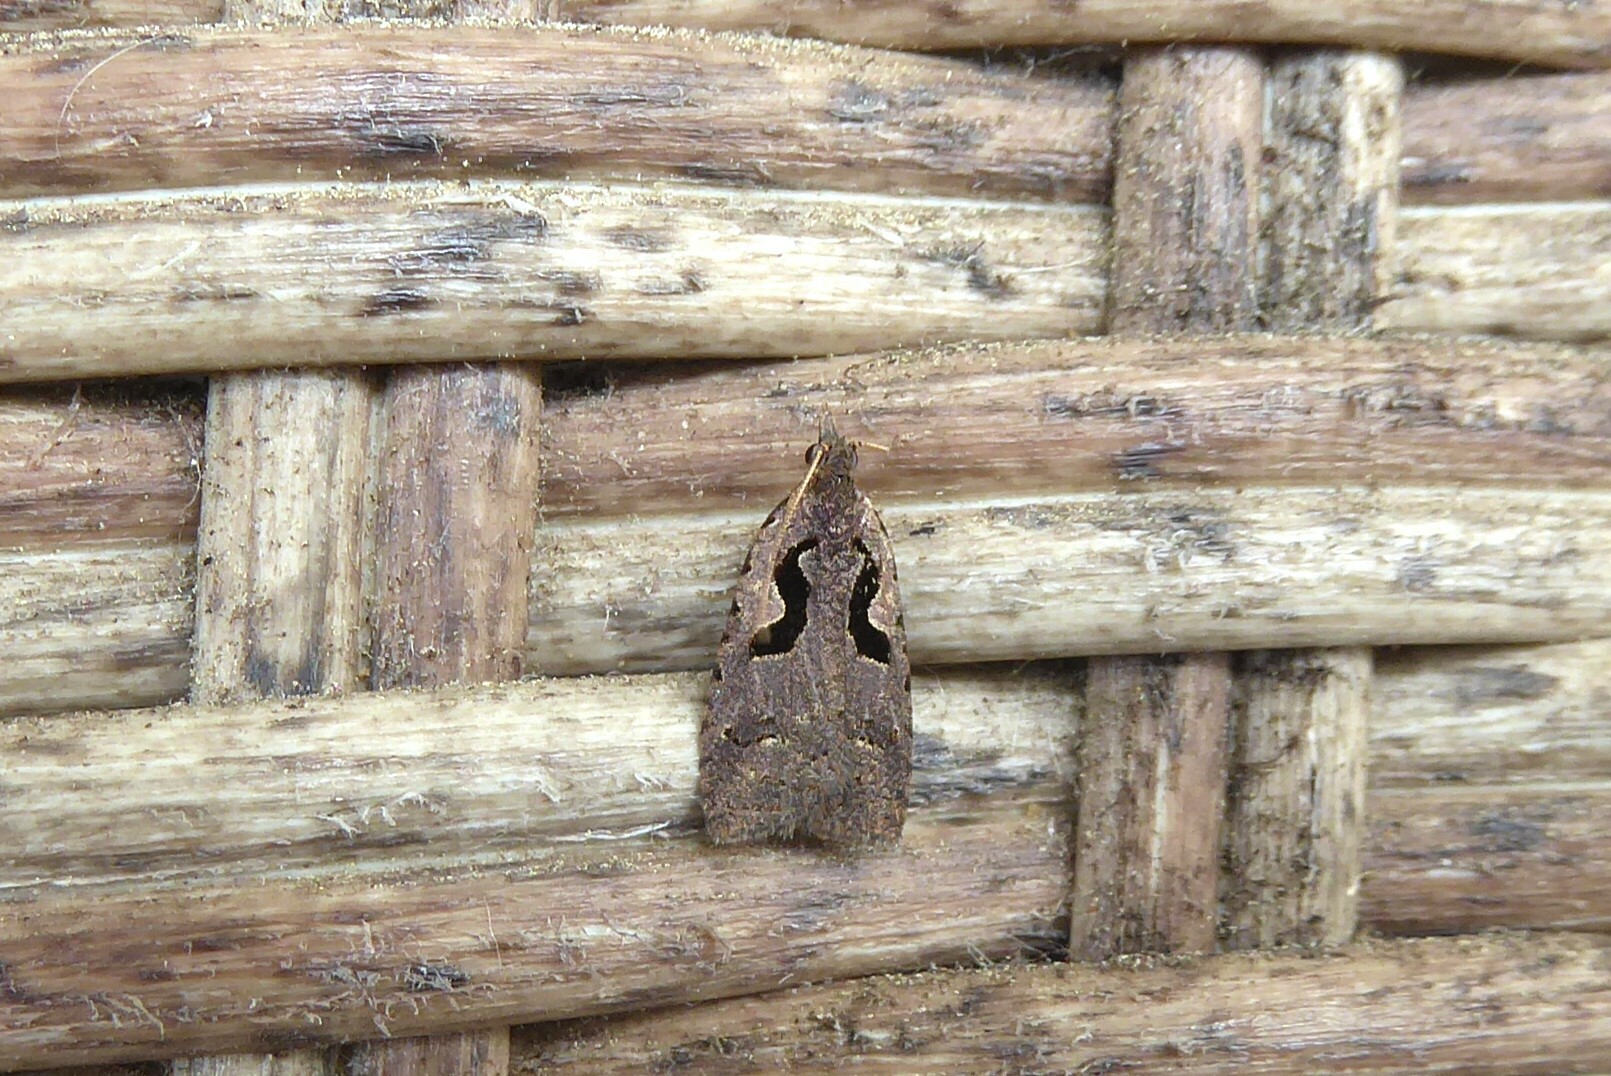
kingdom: Animalia
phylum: Arthropoda
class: Insecta
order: Lepidoptera
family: Tortricidae
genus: Cnephasia
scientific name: Cnephasia jactatana
